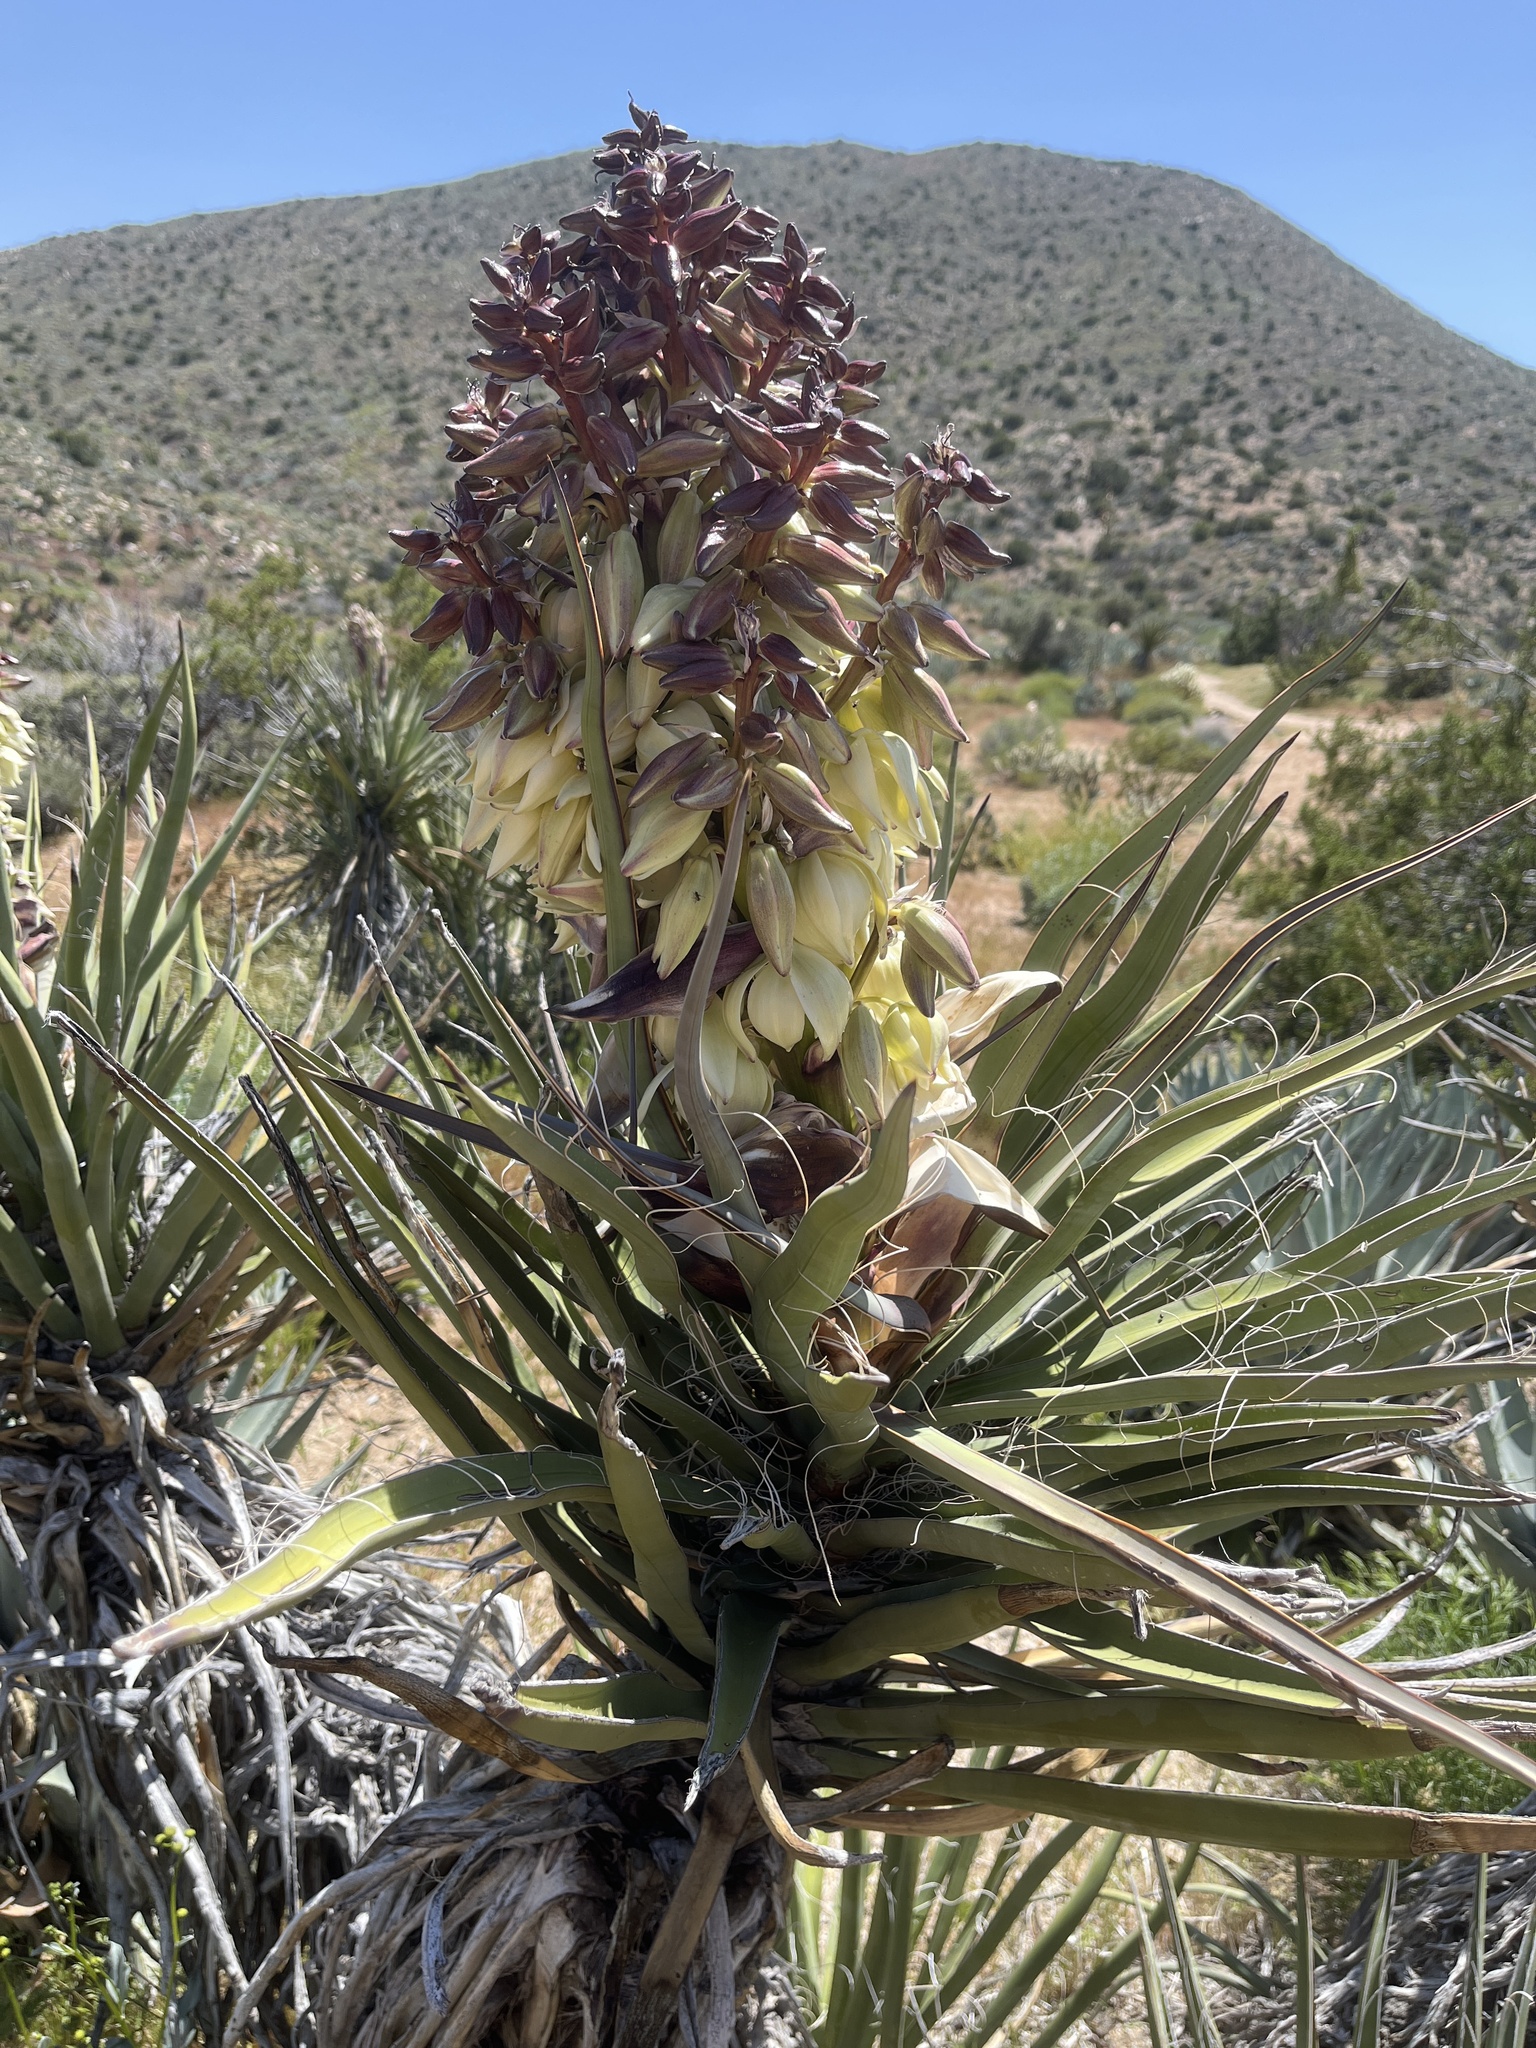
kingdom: Plantae
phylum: Tracheophyta
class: Liliopsida
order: Asparagales
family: Asparagaceae
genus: Yucca
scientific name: Yucca schidigera
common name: Mojave yucca
